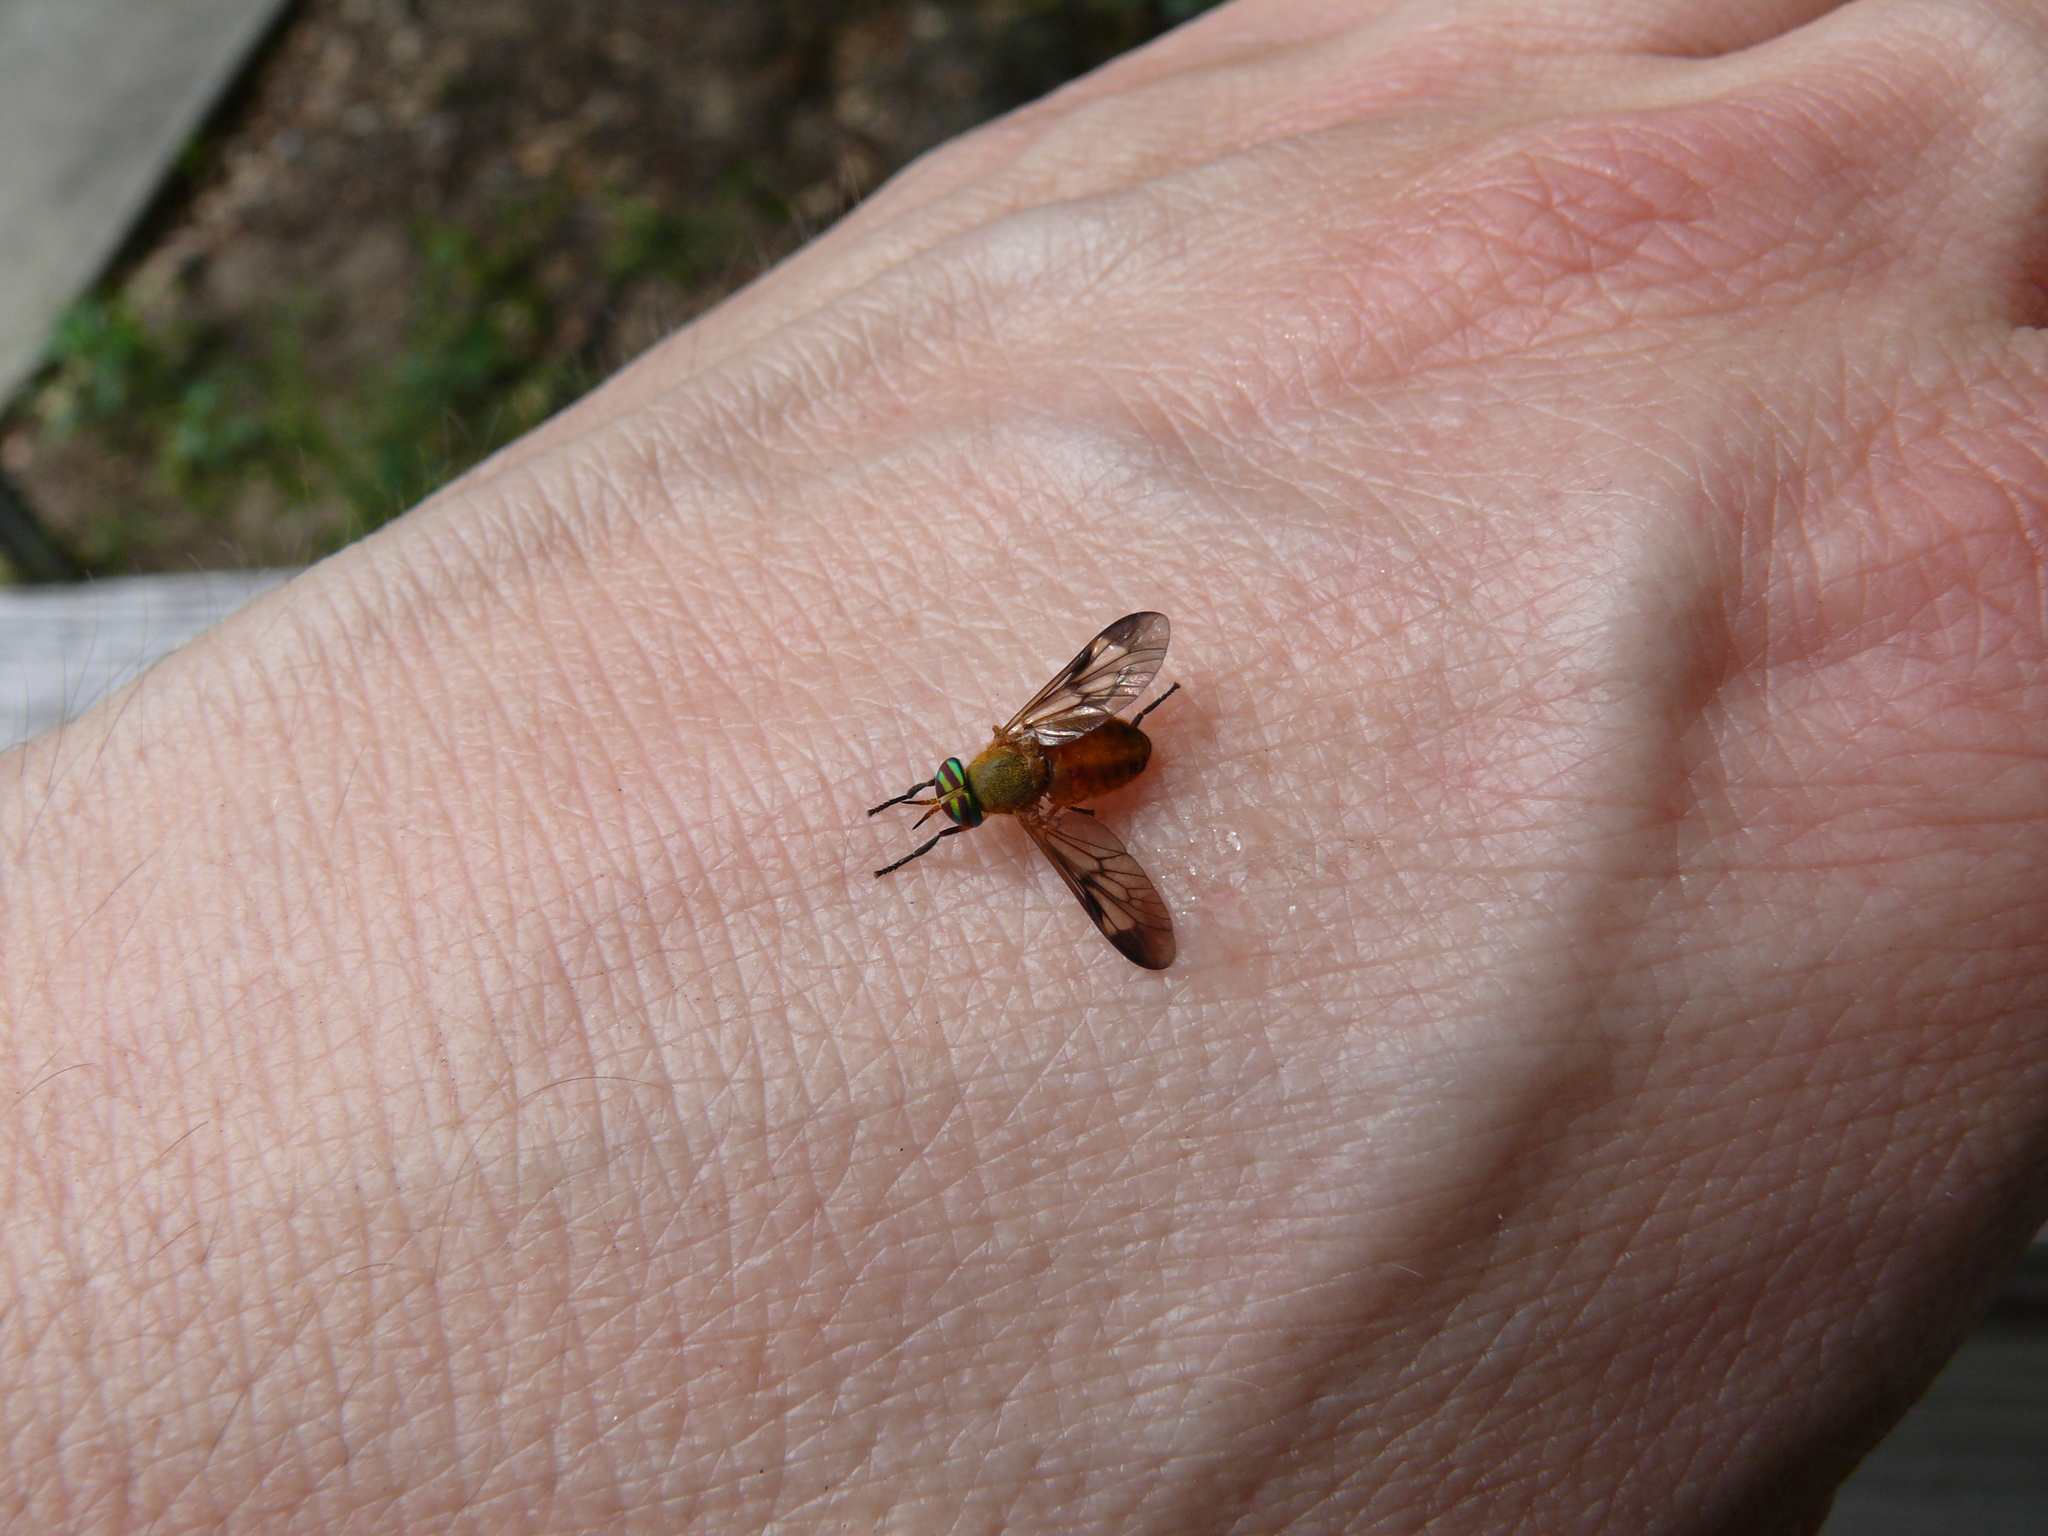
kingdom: Animalia
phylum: Arthropoda
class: Insecta
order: Diptera
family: Tabanidae
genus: Diachlorus
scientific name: Diachlorus ferrugatus
